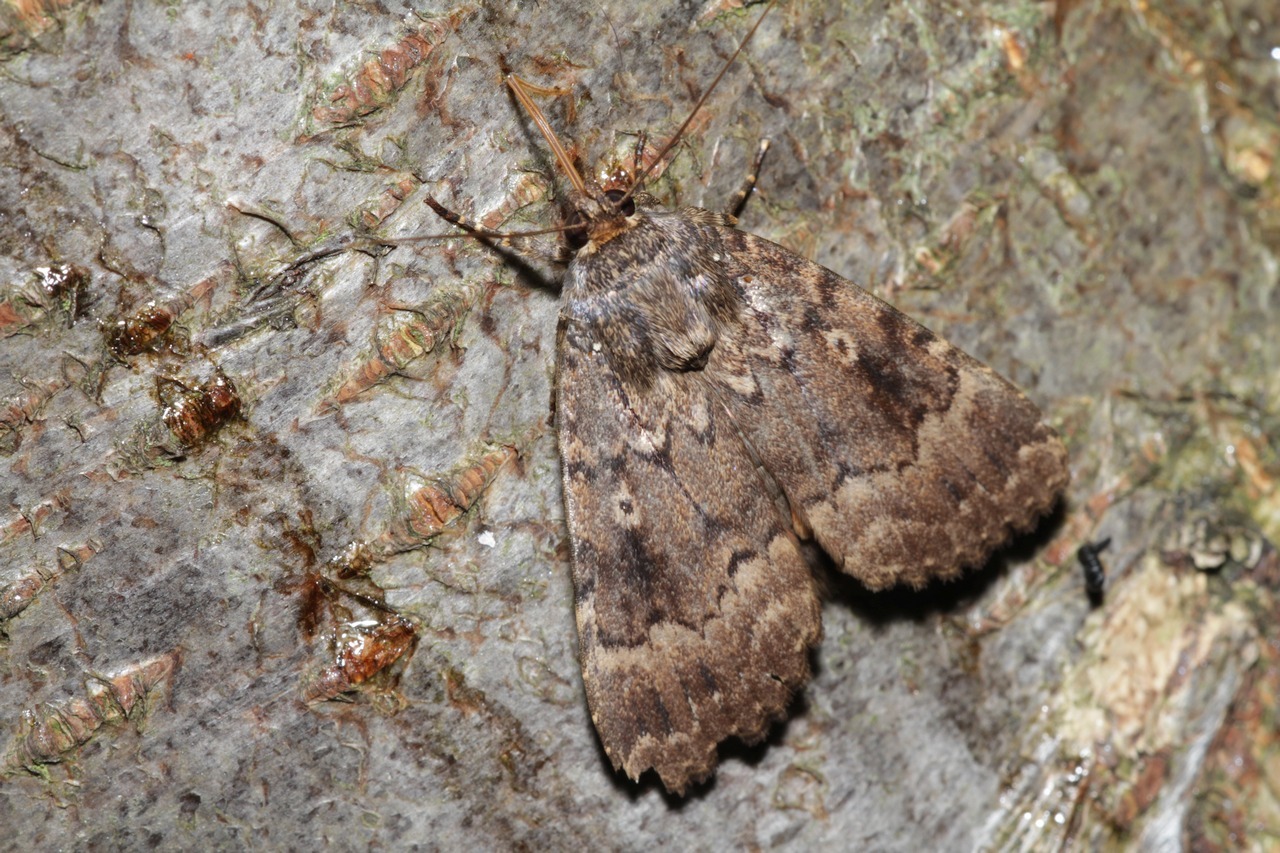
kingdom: Animalia
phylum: Arthropoda
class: Insecta
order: Lepidoptera
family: Noctuidae
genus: Amphipyra
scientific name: Amphipyra berbera
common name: Svensson's copper underwing
